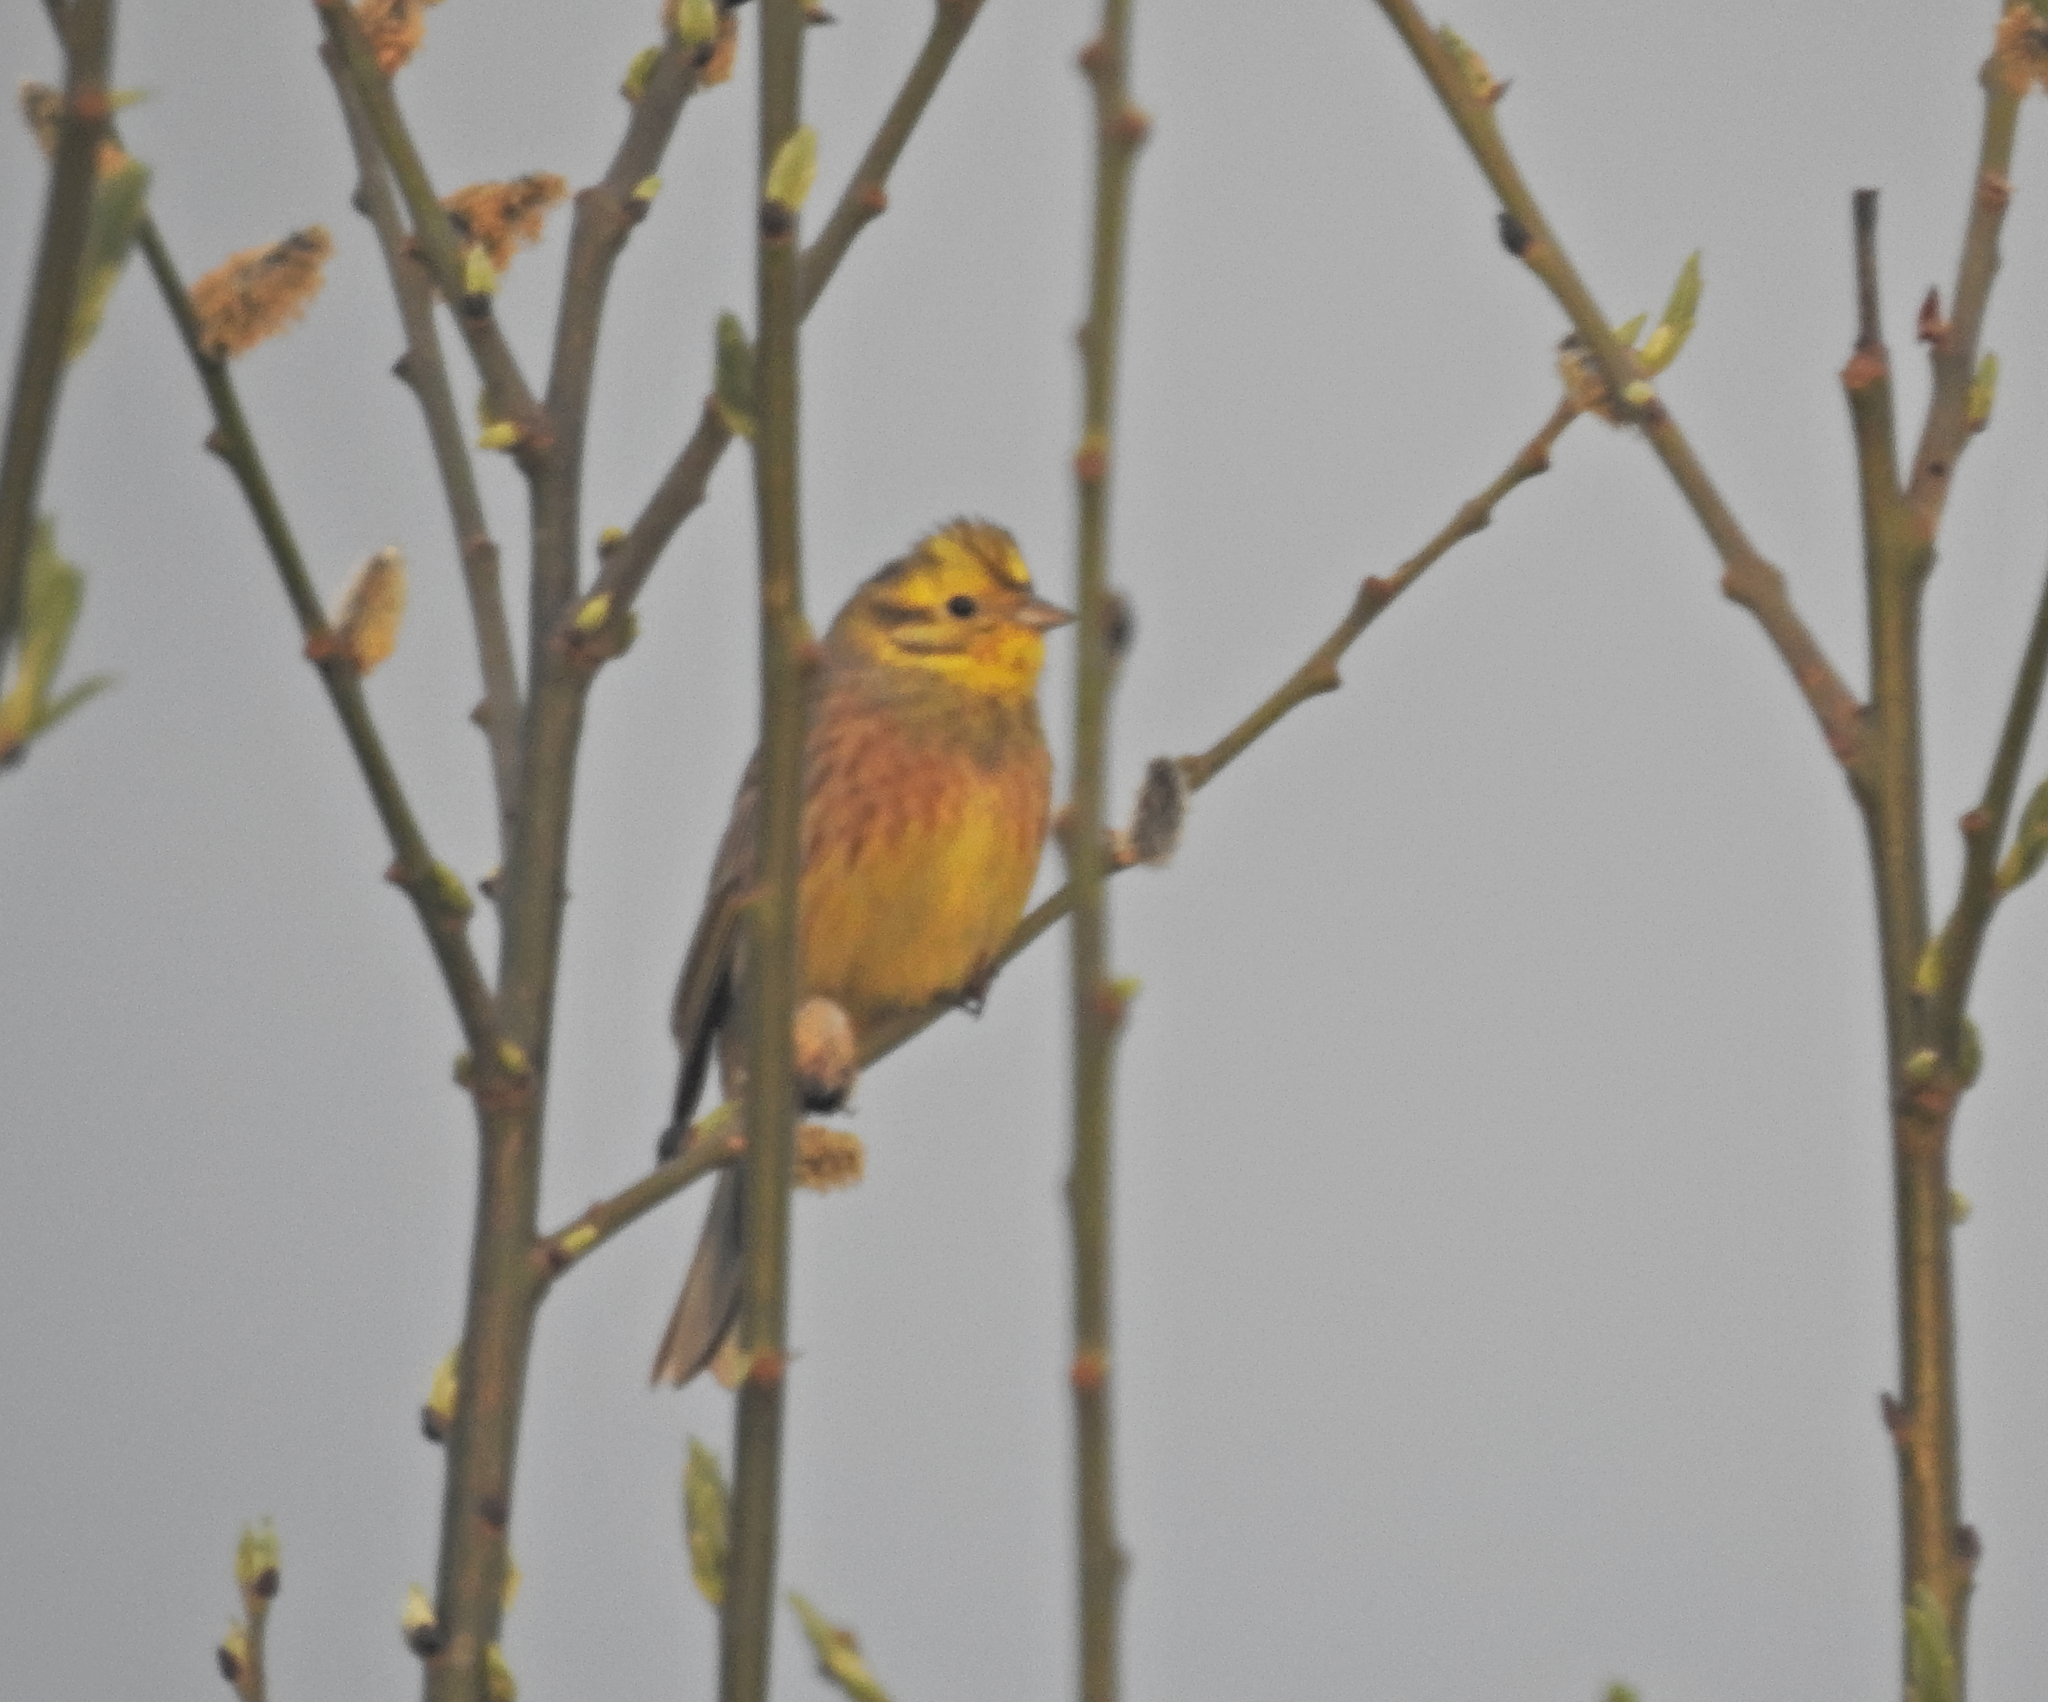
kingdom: Animalia
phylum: Chordata
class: Aves
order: Passeriformes
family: Emberizidae
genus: Emberiza
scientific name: Emberiza citrinella
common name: Yellowhammer
